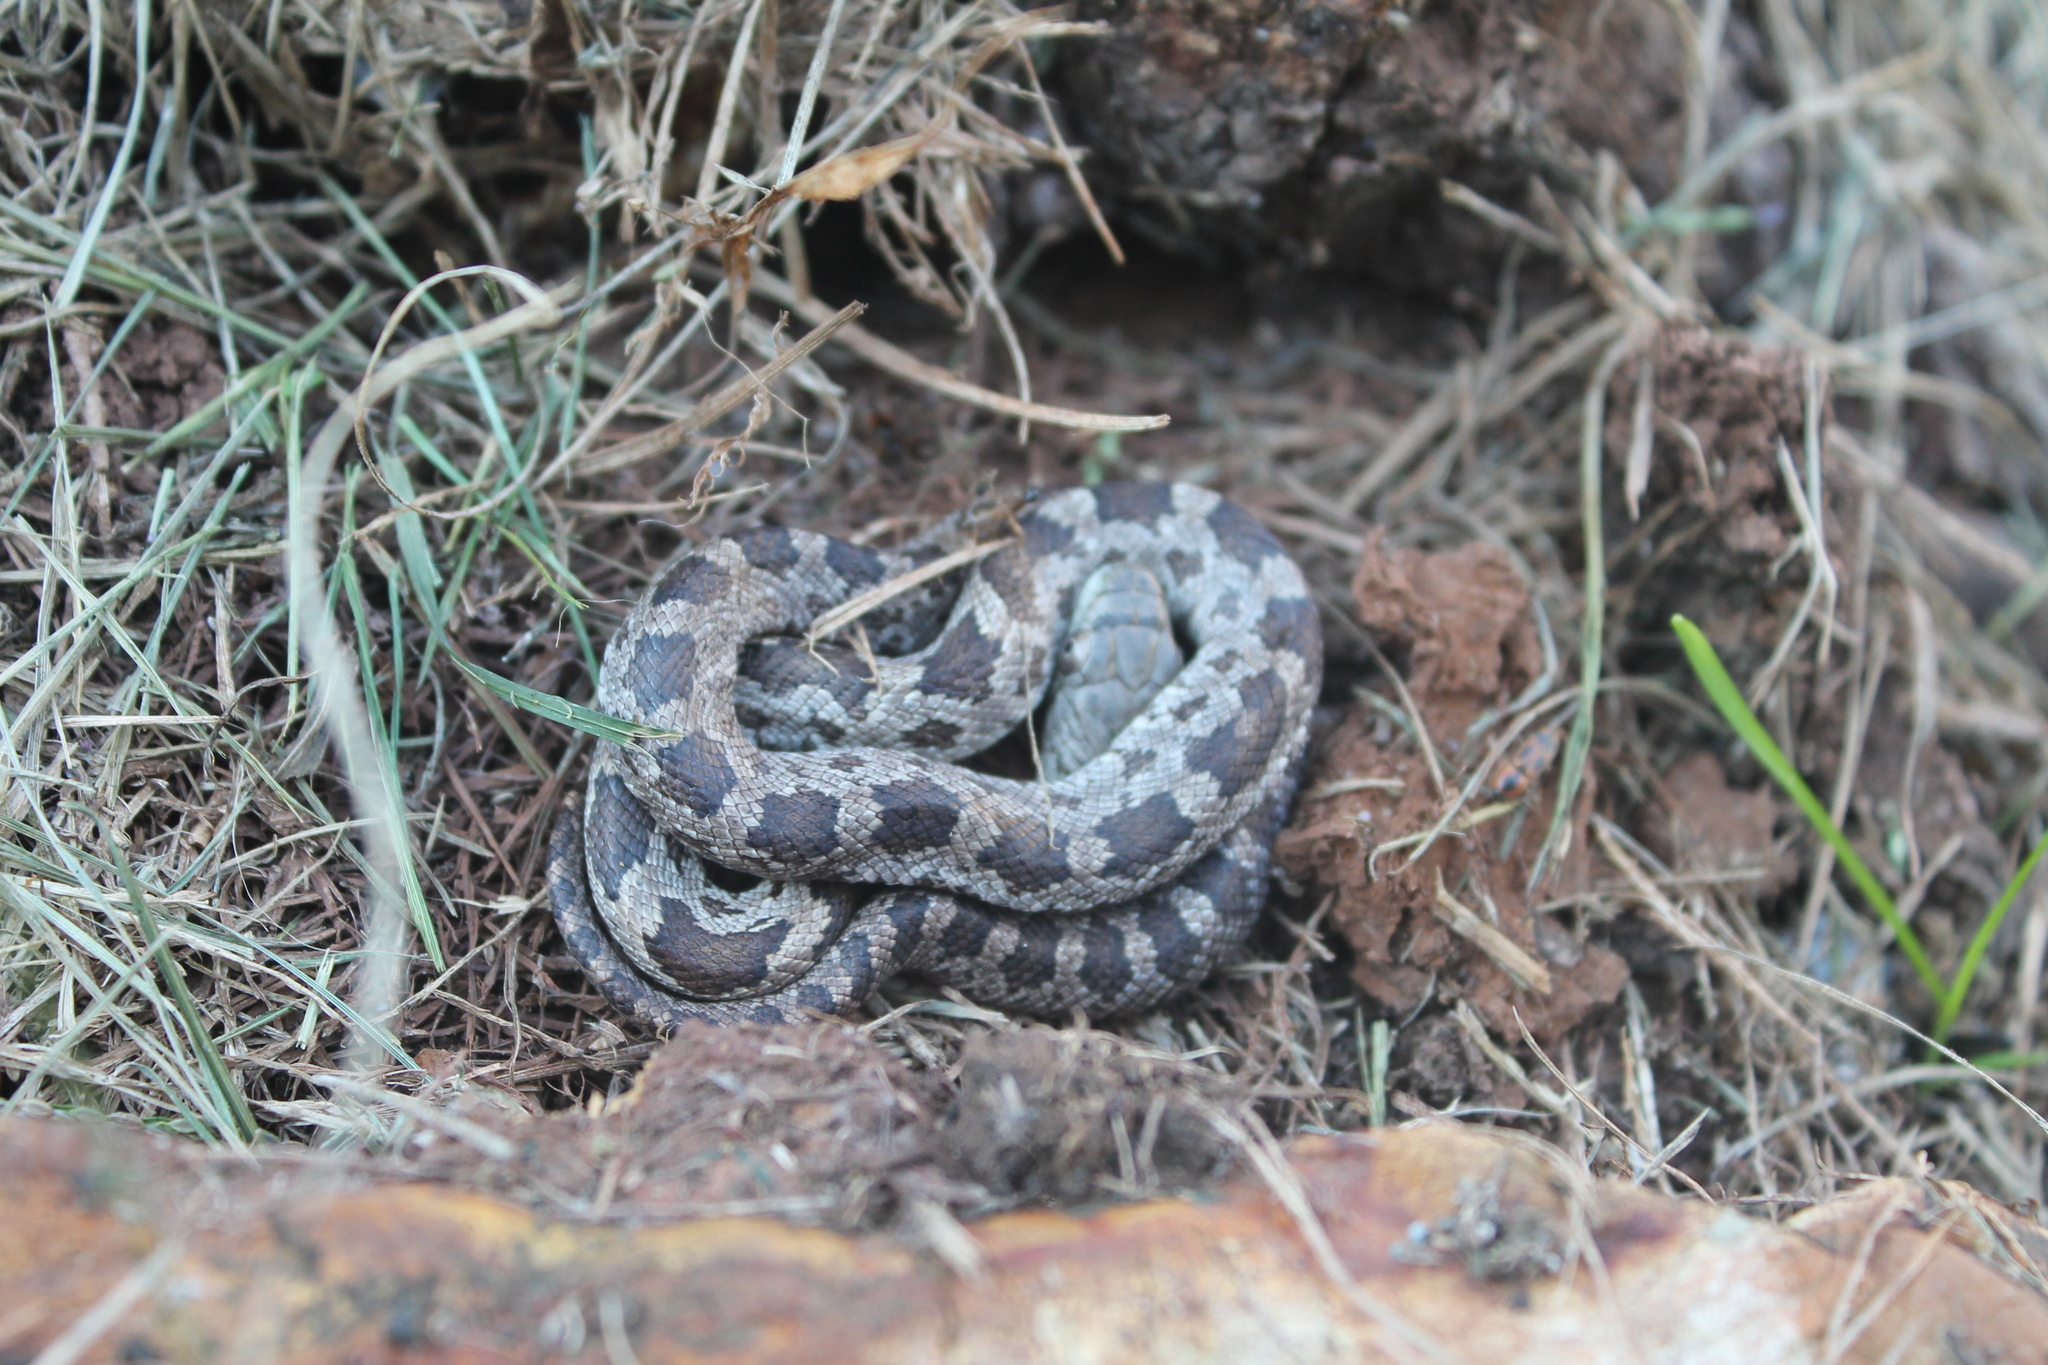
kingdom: Animalia
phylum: Chordata
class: Squamata
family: Colubridae
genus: Pantherophis
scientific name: Pantherophis alleghaniensis
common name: Eastern rat snake
